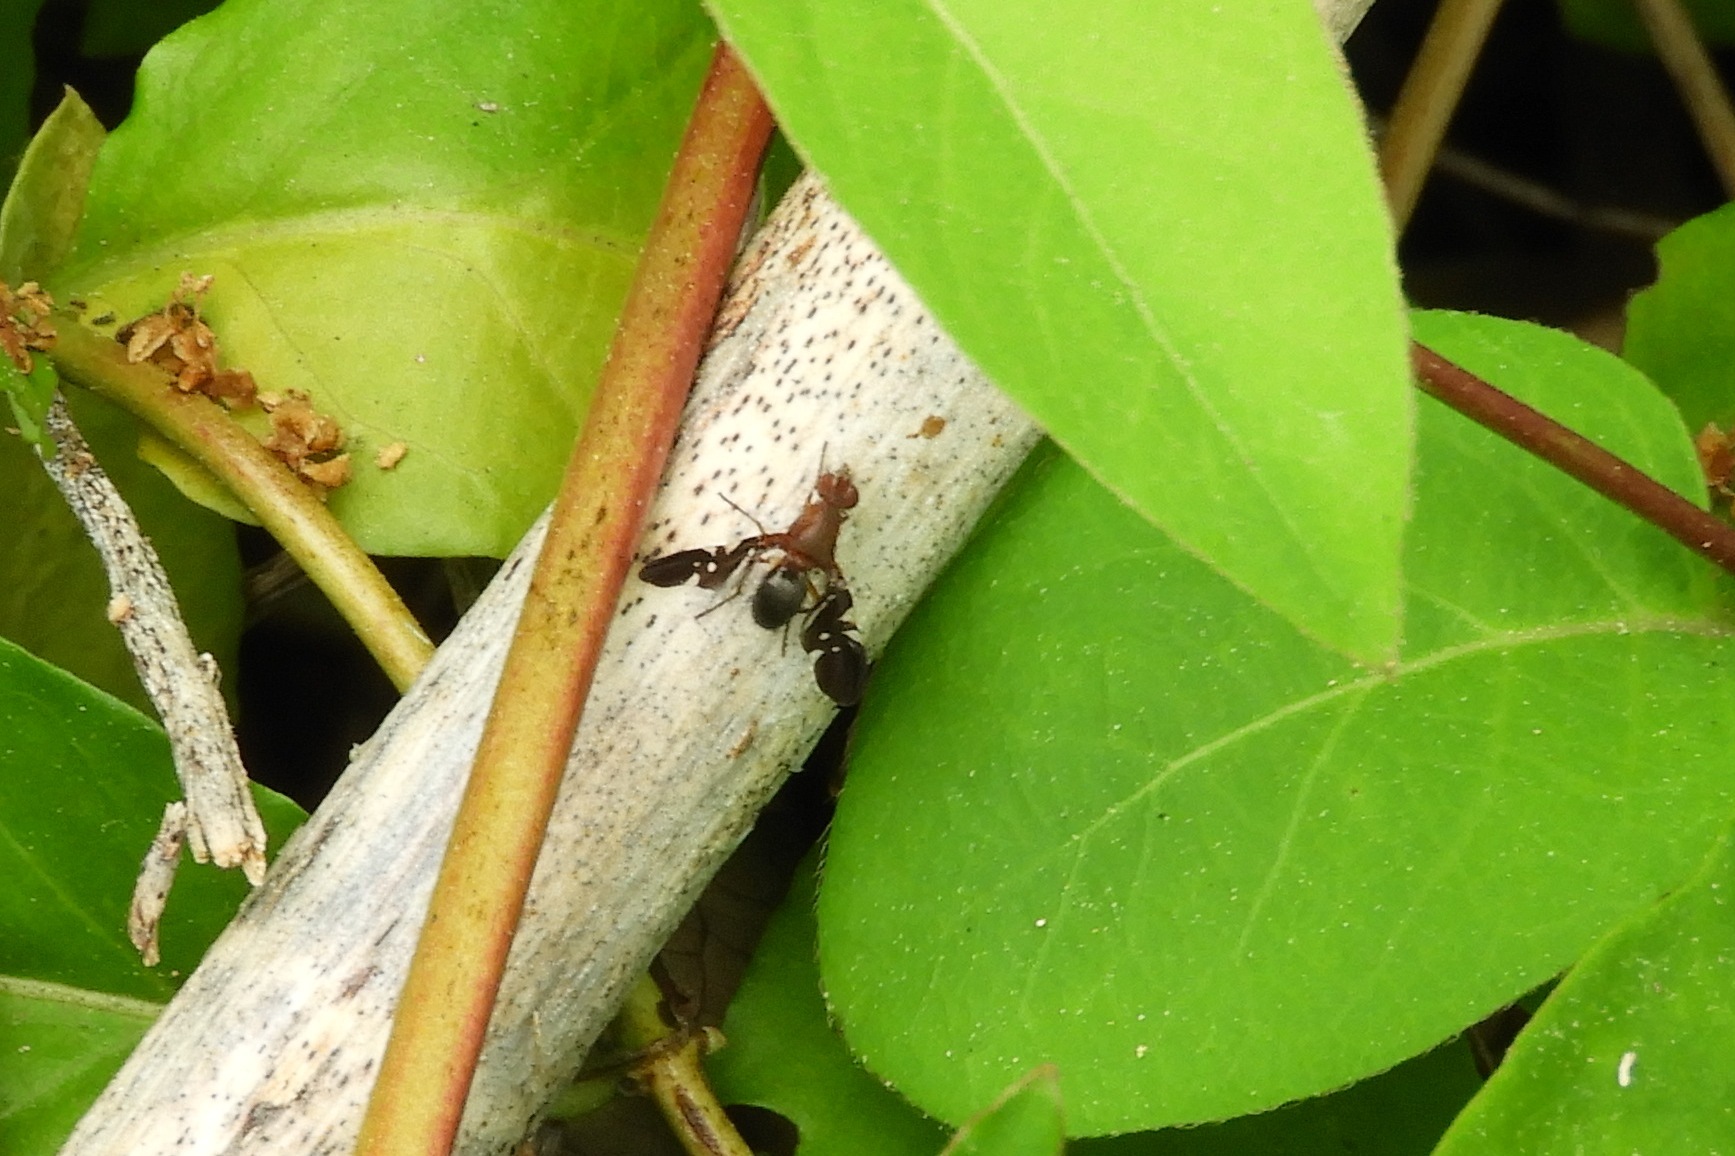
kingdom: Animalia
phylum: Arthropoda
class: Insecta
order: Diptera
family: Ulidiidae
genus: Delphinia
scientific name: Delphinia picta
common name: Common picture-winged fly
